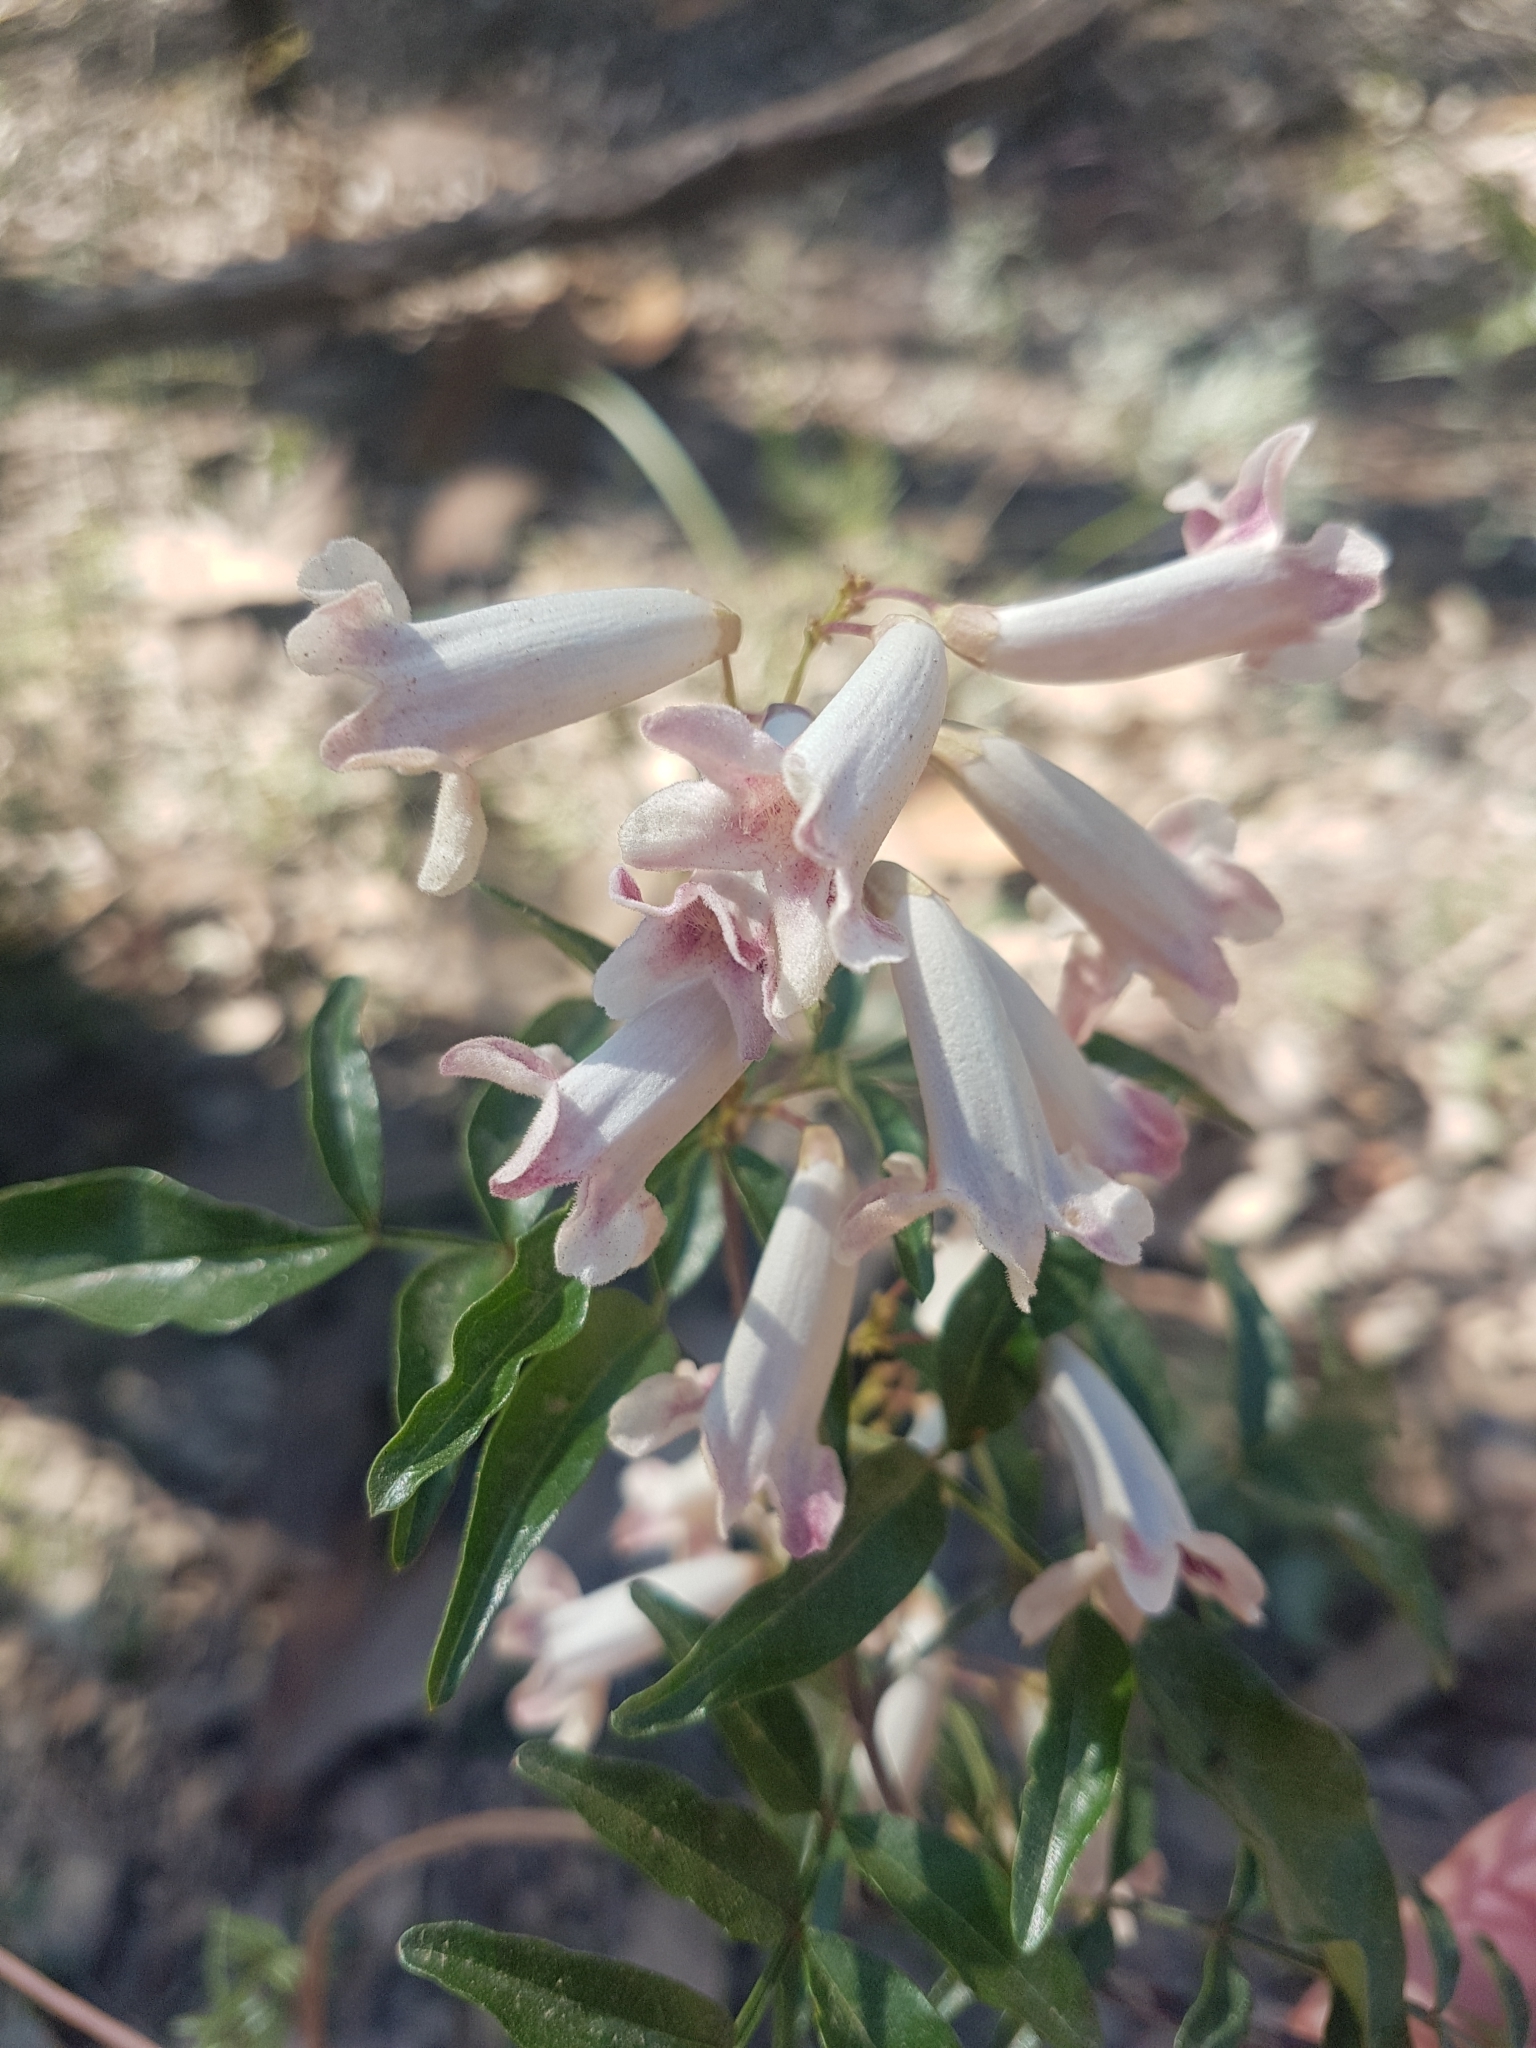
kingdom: Plantae
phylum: Tracheophyta
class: Magnoliopsida
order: Lamiales
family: Bignoniaceae
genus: Pandorea
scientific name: Pandorea pandorana
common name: Wonga-wonga-vine
